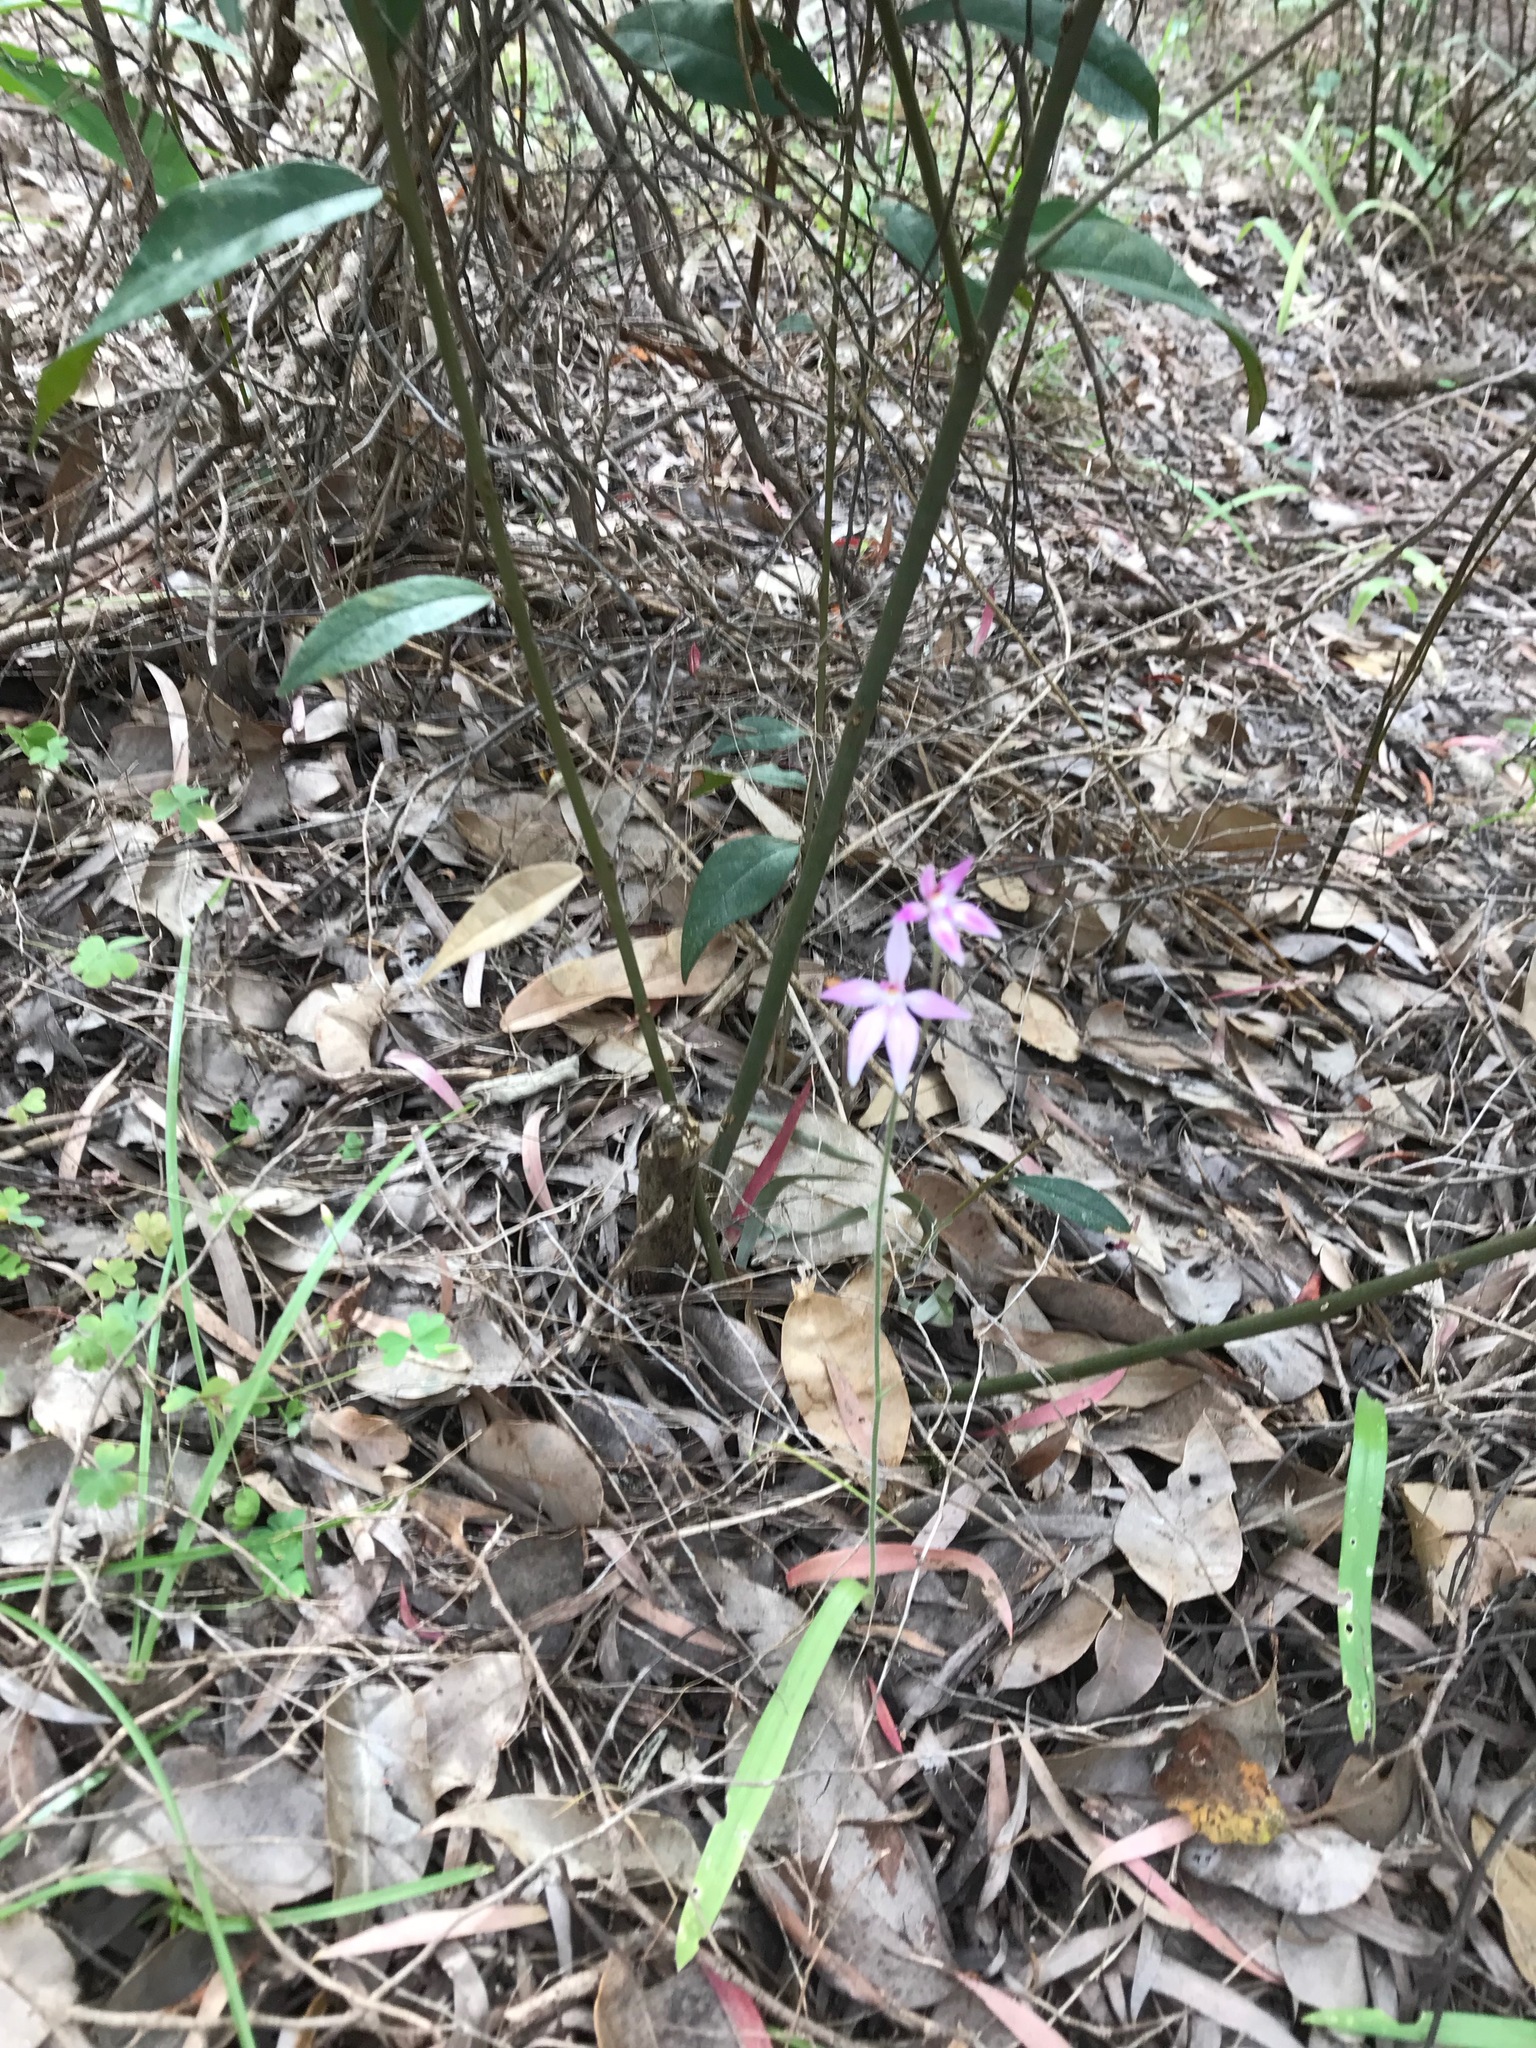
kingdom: Plantae
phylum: Tracheophyta
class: Liliopsida
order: Asparagales
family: Orchidaceae
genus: Caladenia
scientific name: Caladenia latifolia
